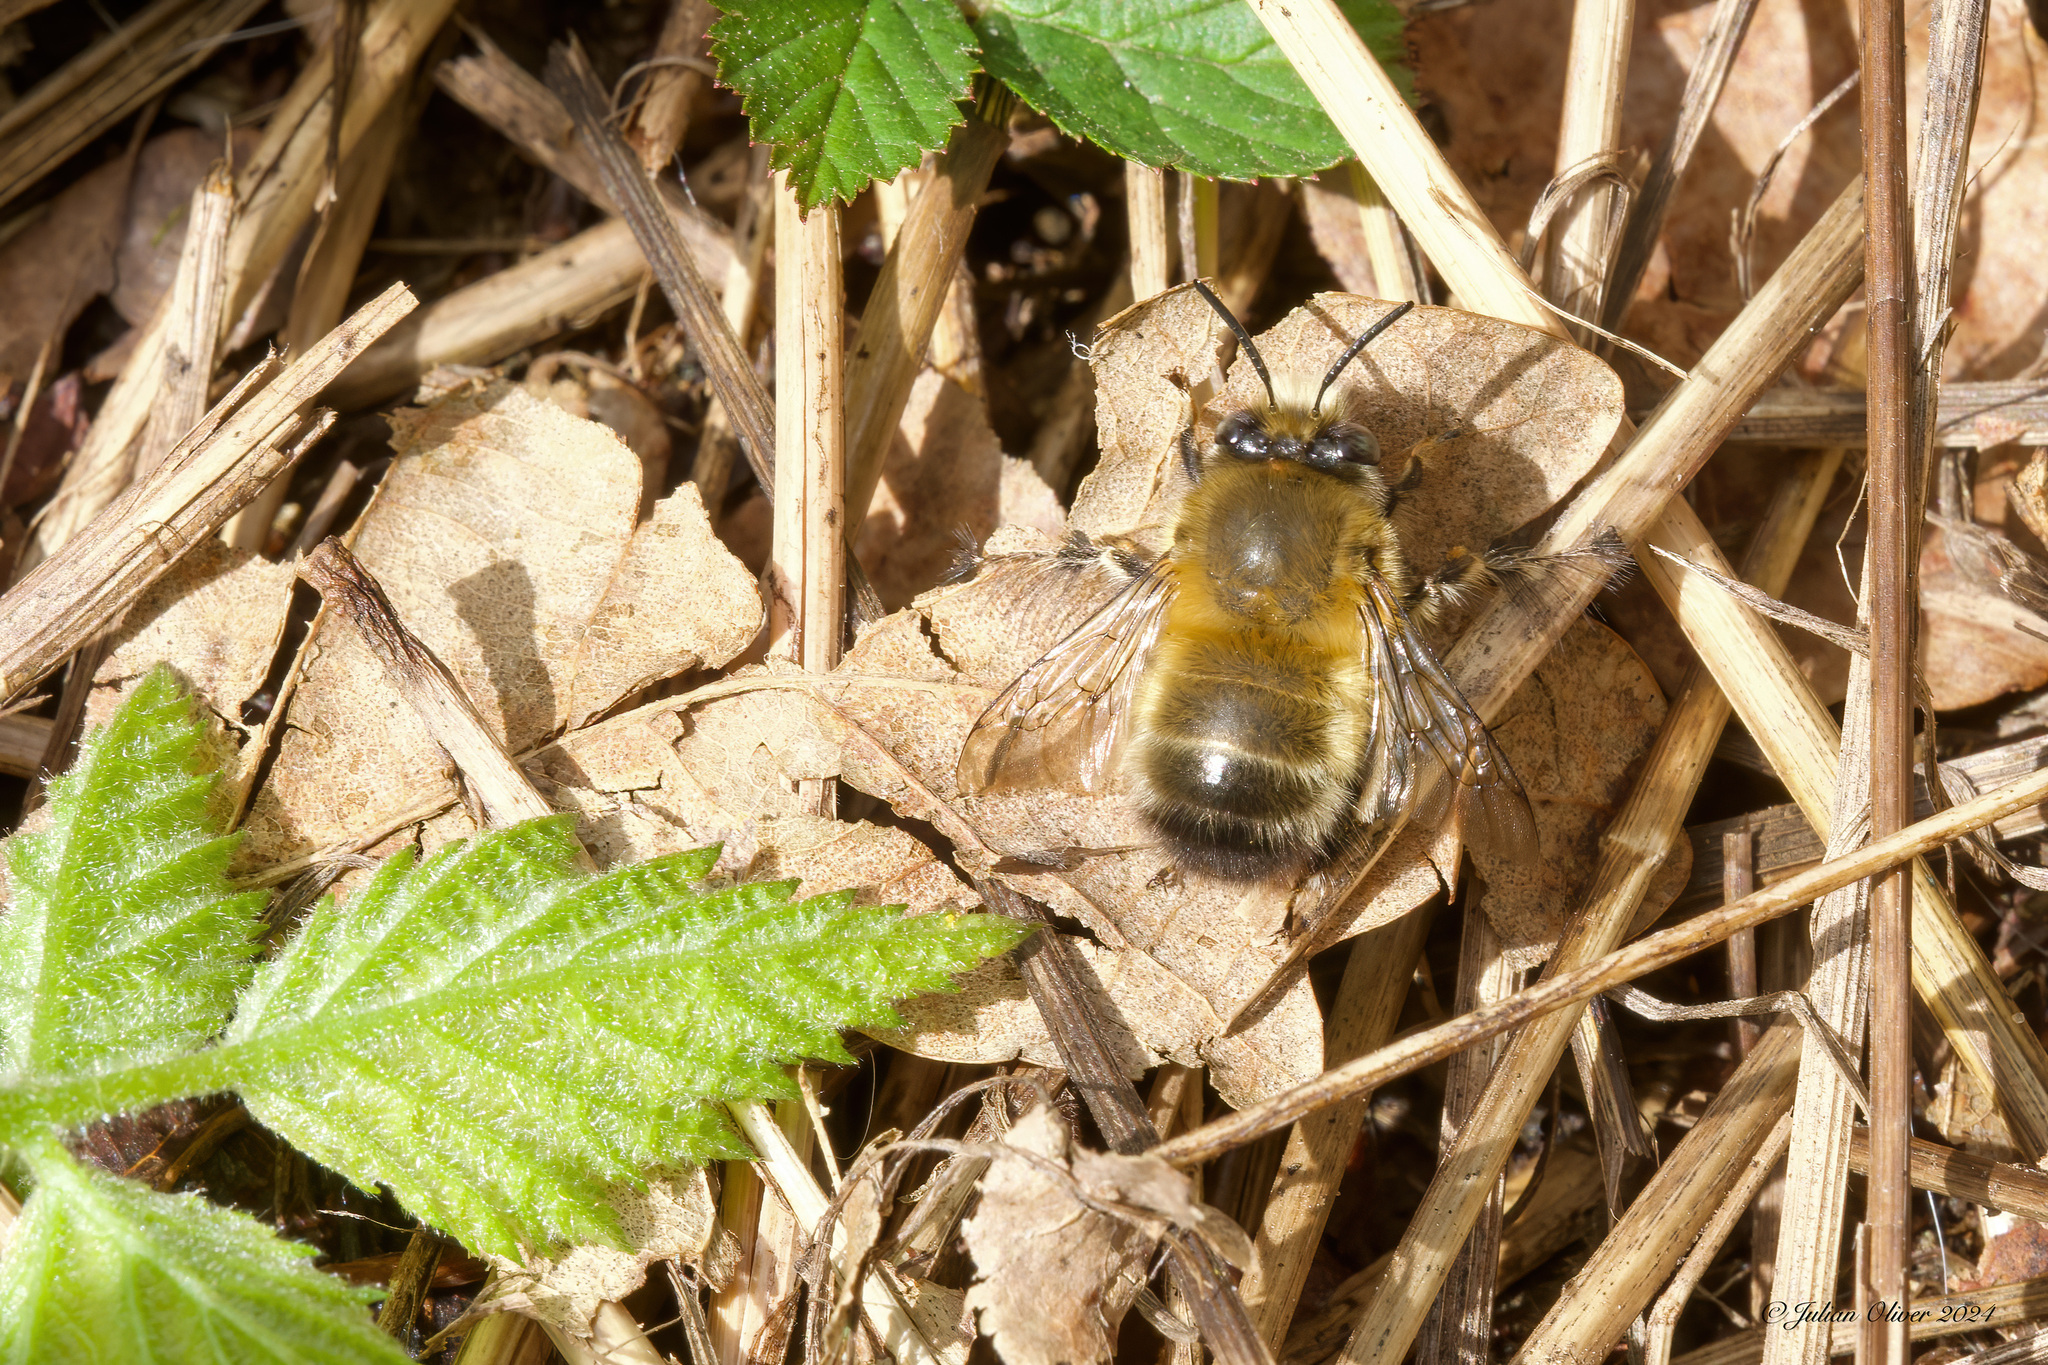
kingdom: Animalia
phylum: Arthropoda
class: Insecta
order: Hymenoptera
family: Apidae
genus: Anthophora
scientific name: Anthophora plumipes
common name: Hairy-footed flower bee
